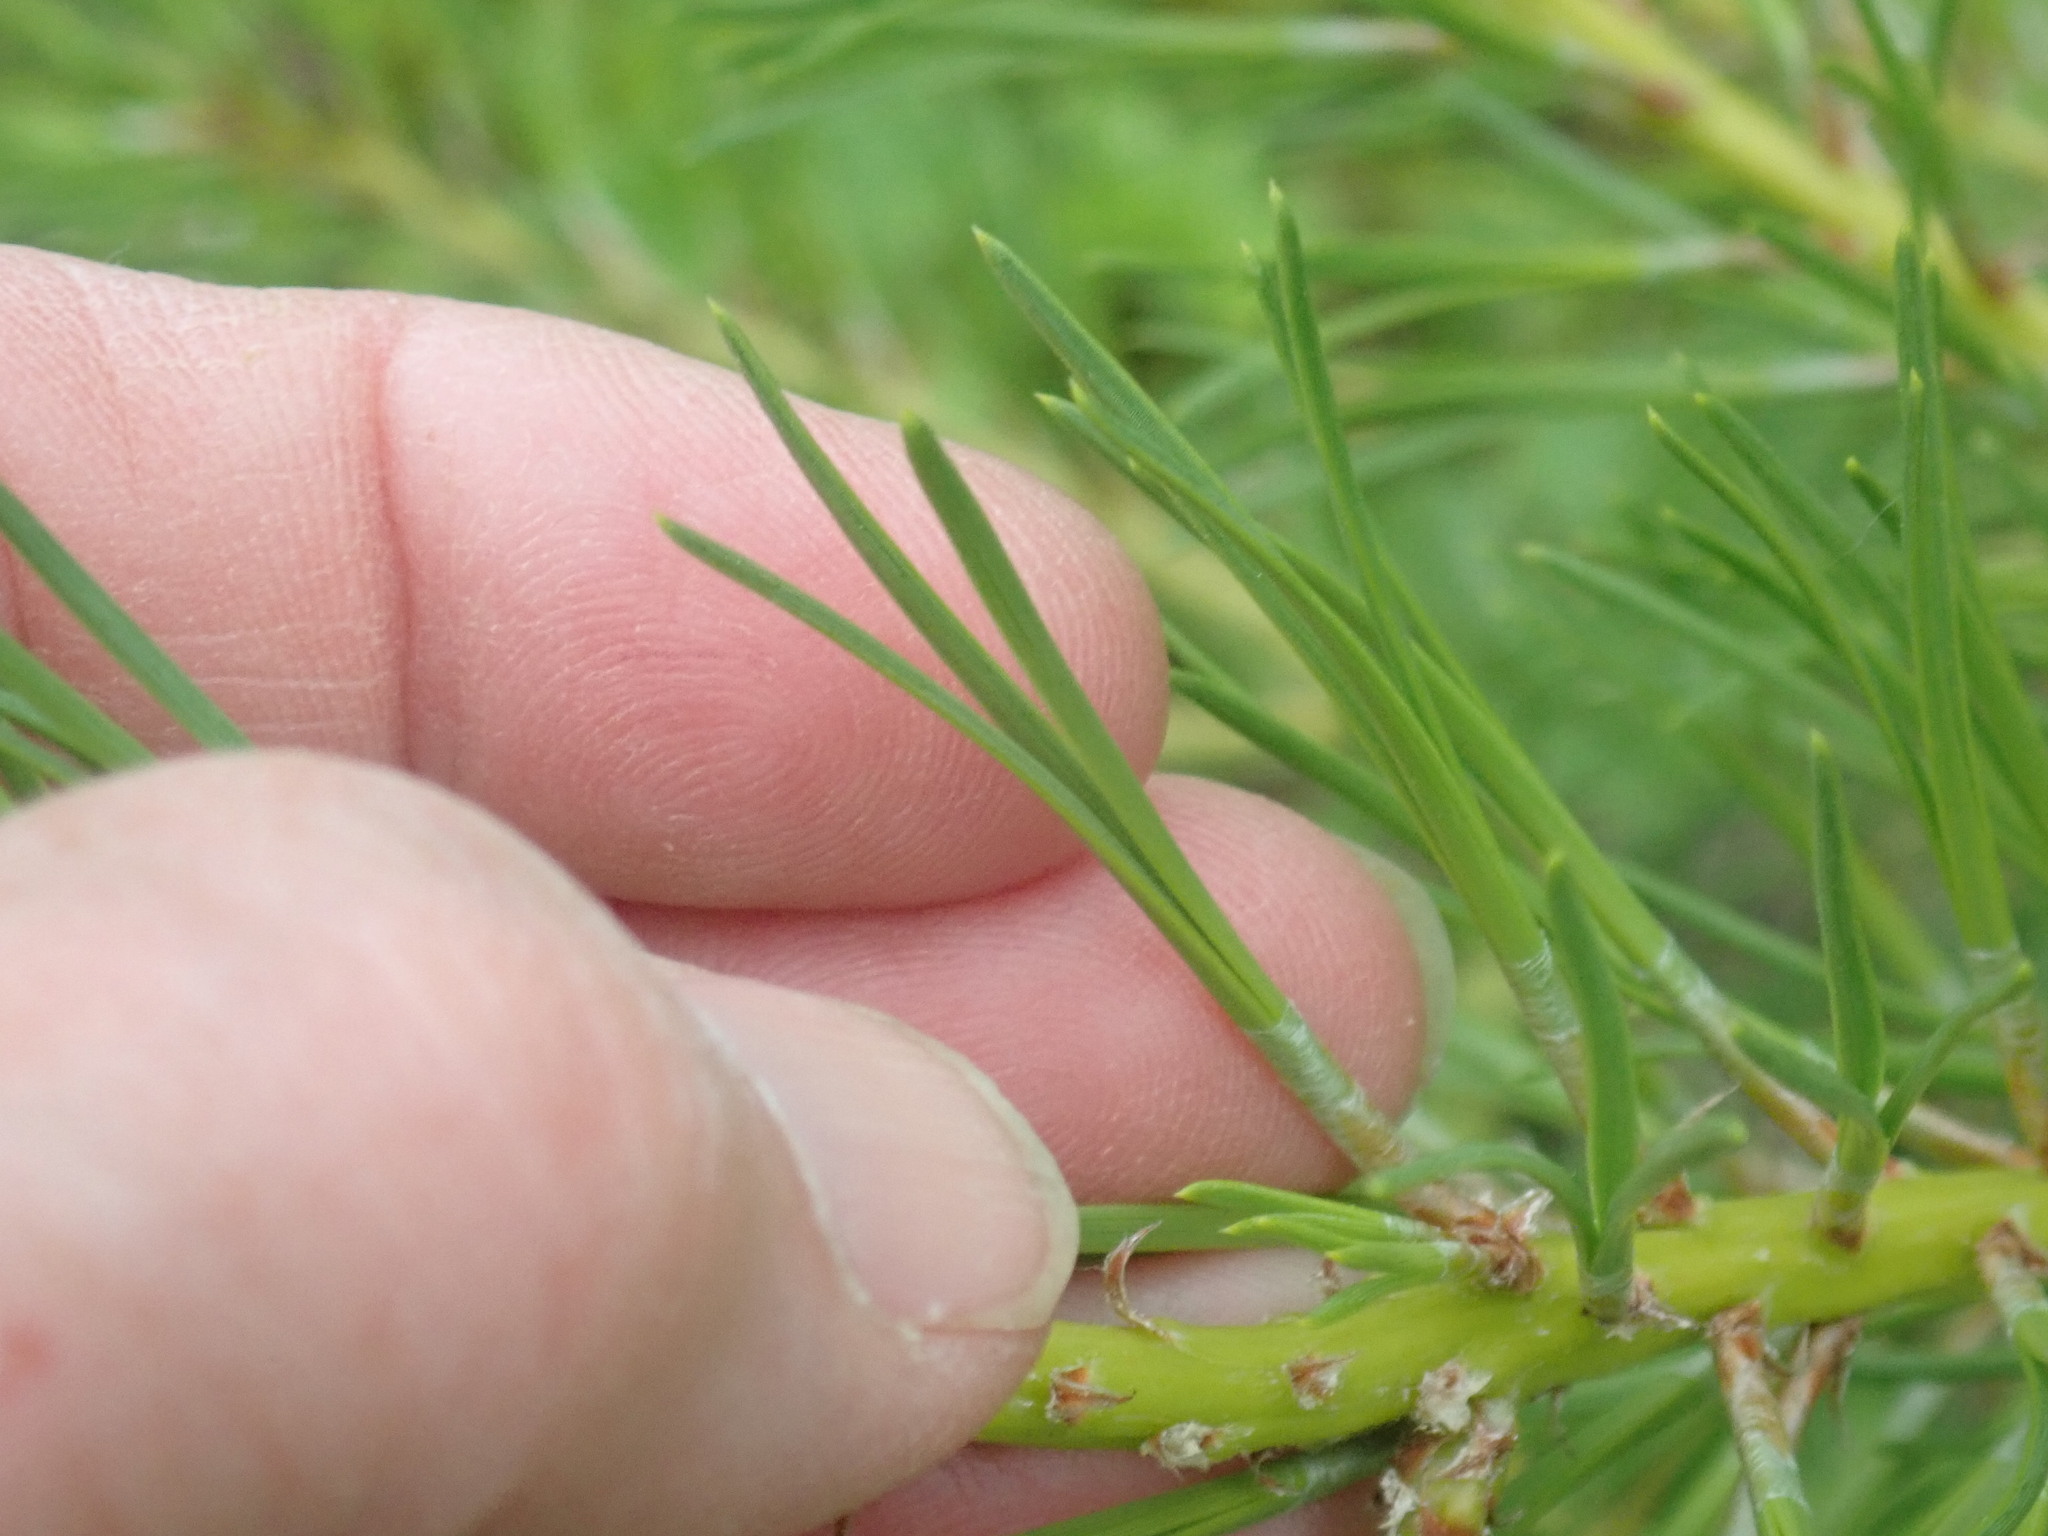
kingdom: Plantae
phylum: Tracheophyta
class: Pinopsida
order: Pinales
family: Pinaceae
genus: Pinus
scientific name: Pinus rigida
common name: Pitch pine
